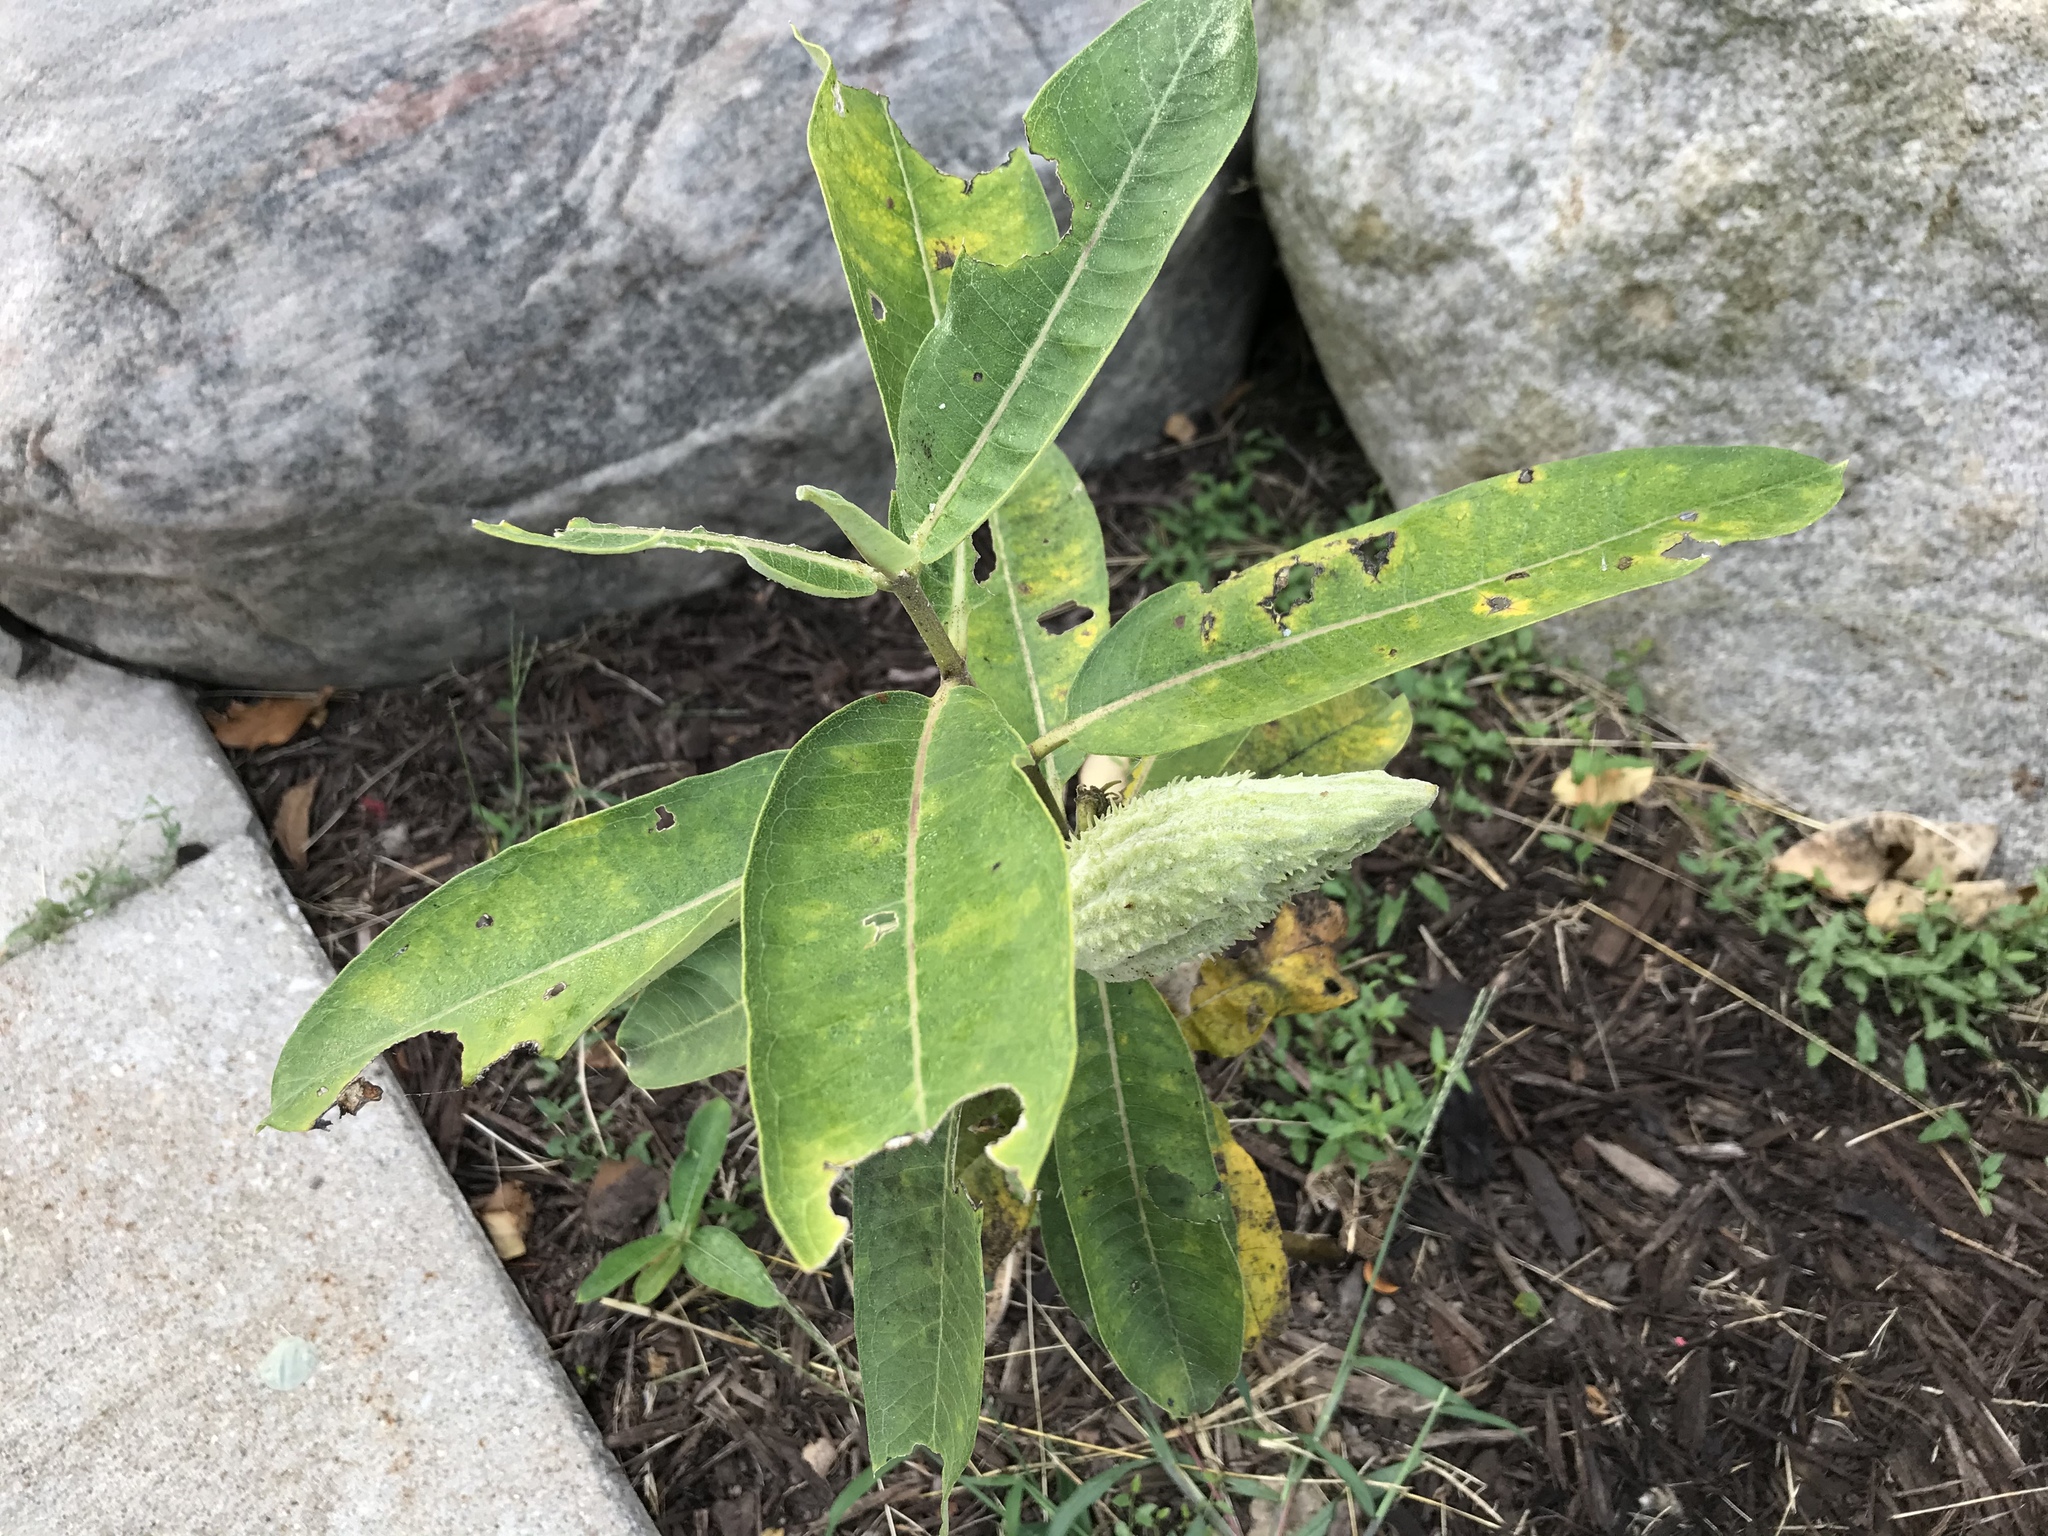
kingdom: Plantae
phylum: Tracheophyta
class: Magnoliopsida
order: Gentianales
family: Apocynaceae
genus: Asclepias
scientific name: Asclepias syriaca
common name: Common milkweed
